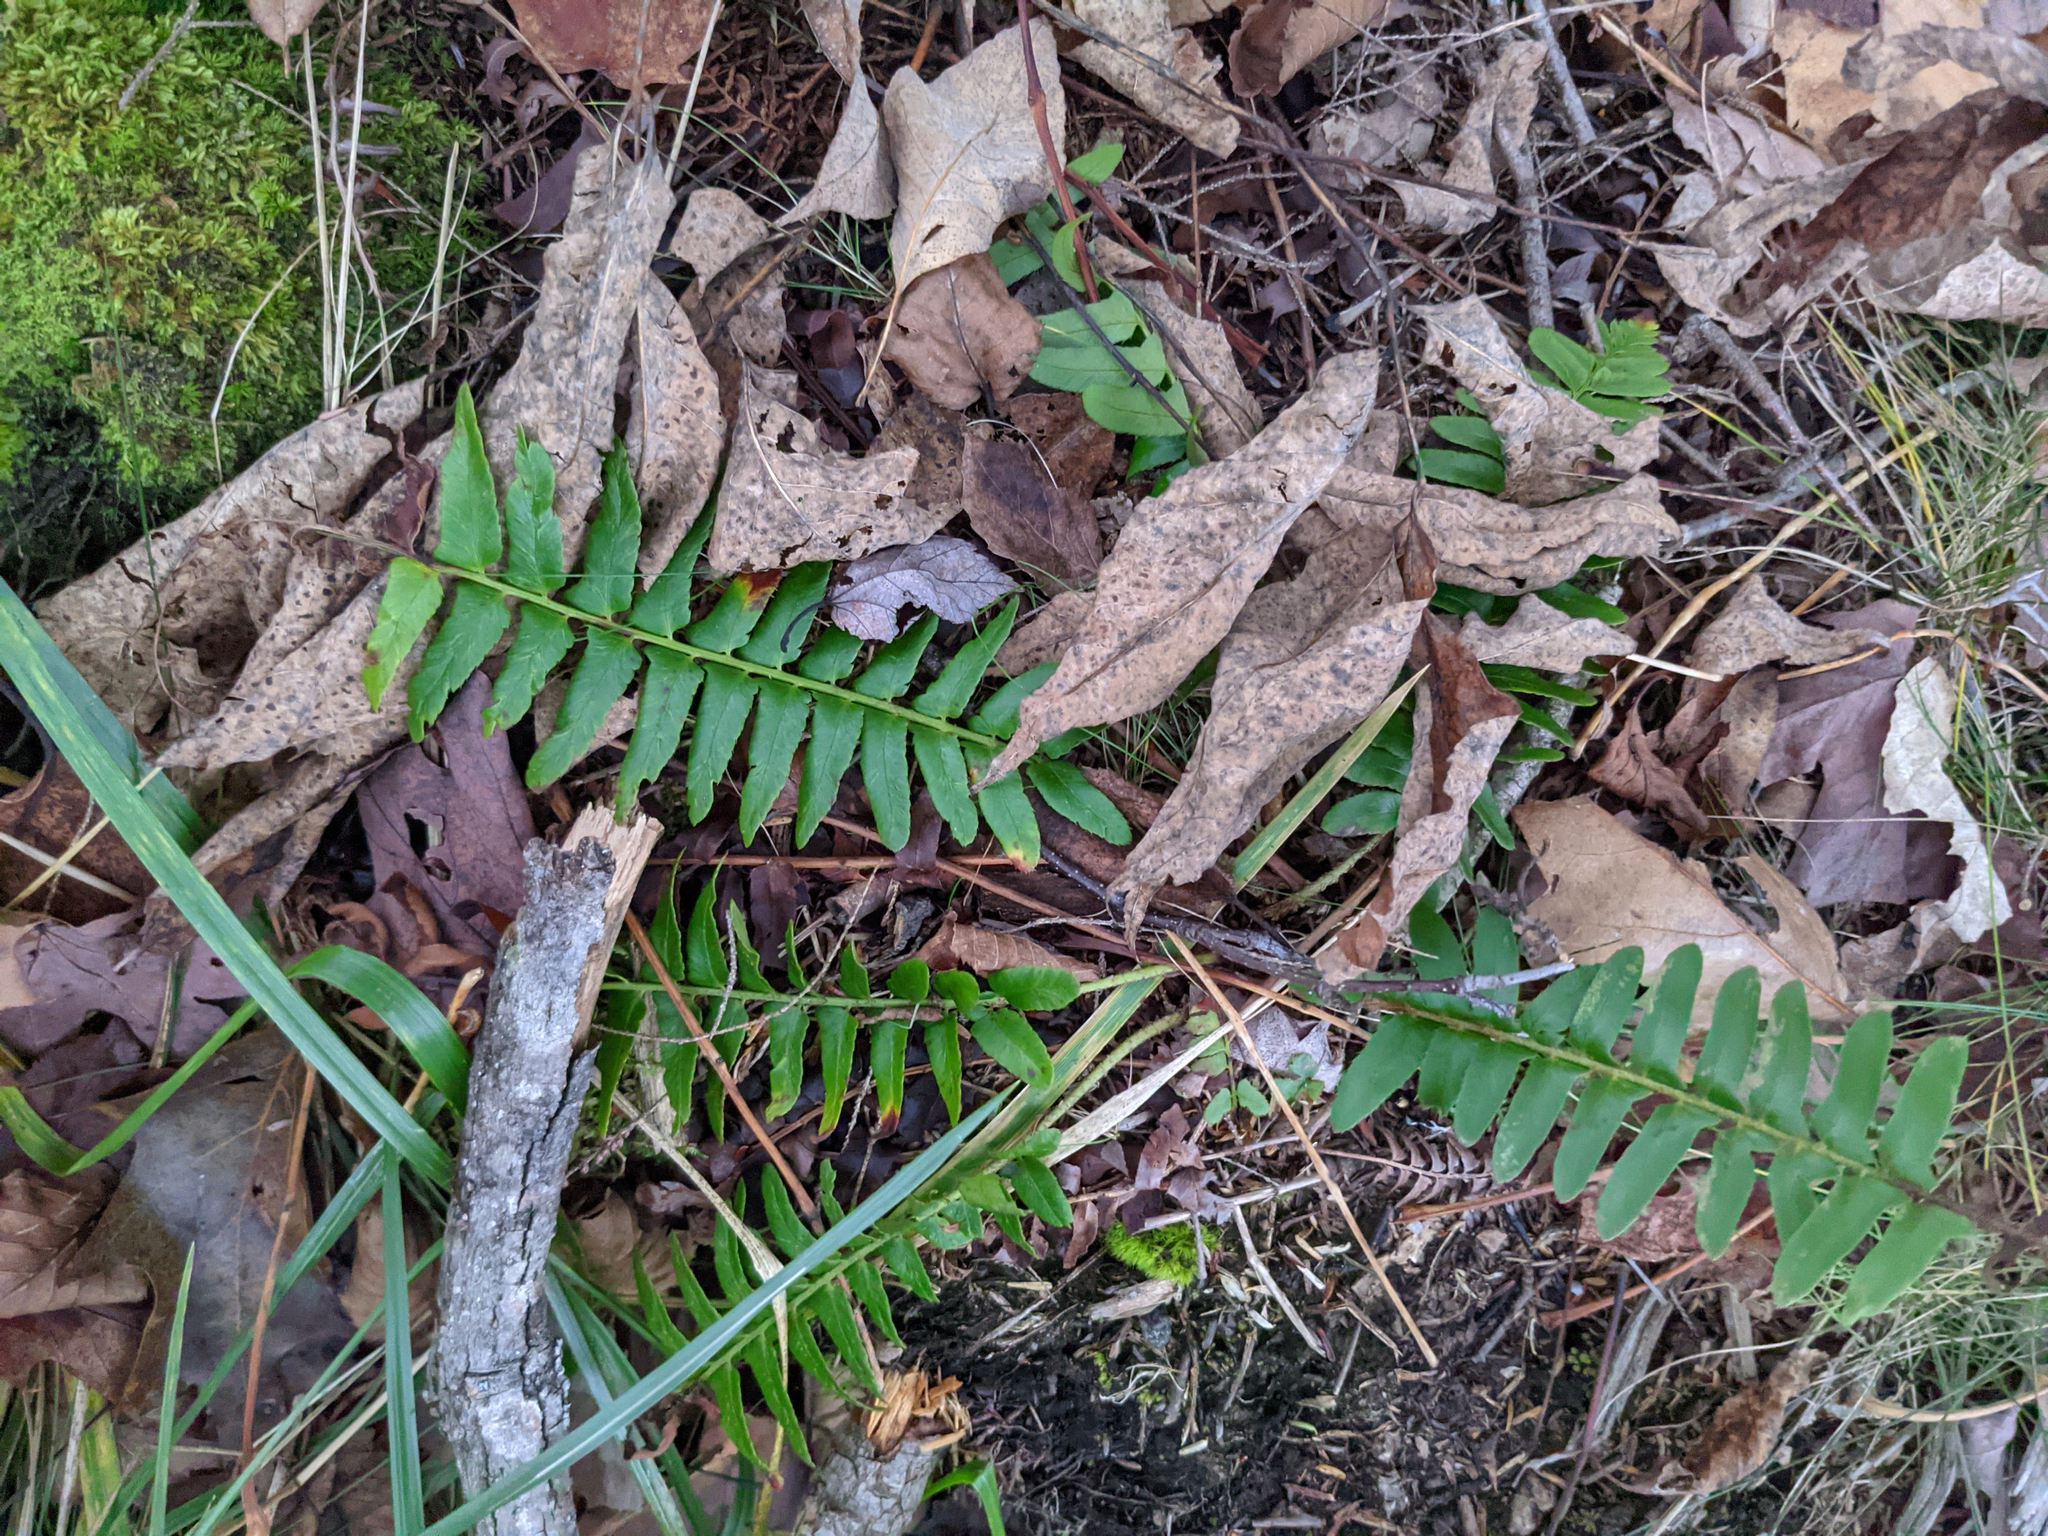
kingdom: Plantae
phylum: Tracheophyta
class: Polypodiopsida
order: Polypodiales
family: Dryopteridaceae
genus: Polystichum
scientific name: Polystichum acrostichoides
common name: Christmas fern
